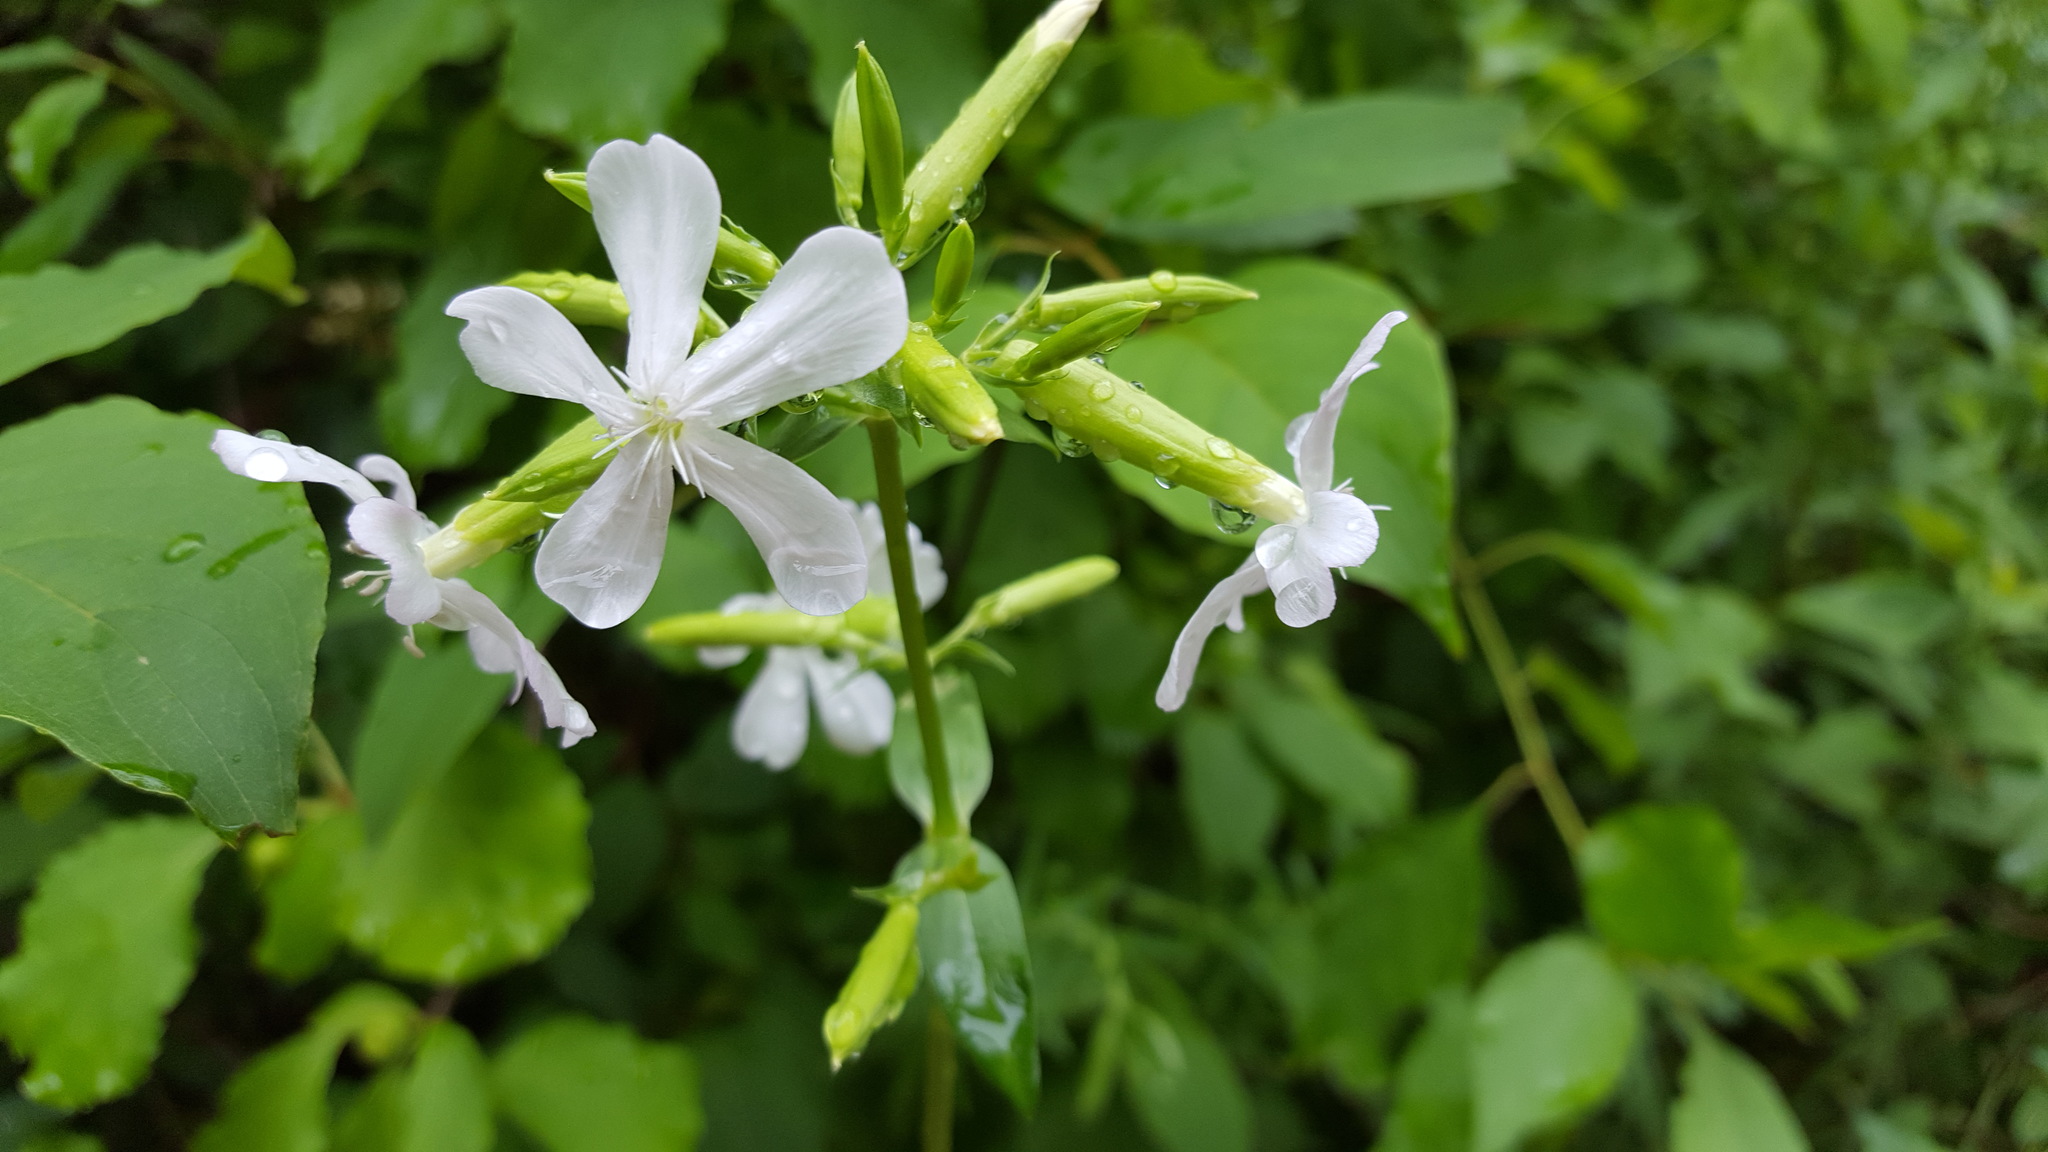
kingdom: Plantae
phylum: Tracheophyta
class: Magnoliopsida
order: Caryophyllales
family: Caryophyllaceae
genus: Saponaria
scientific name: Saponaria officinalis
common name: Soapwort
